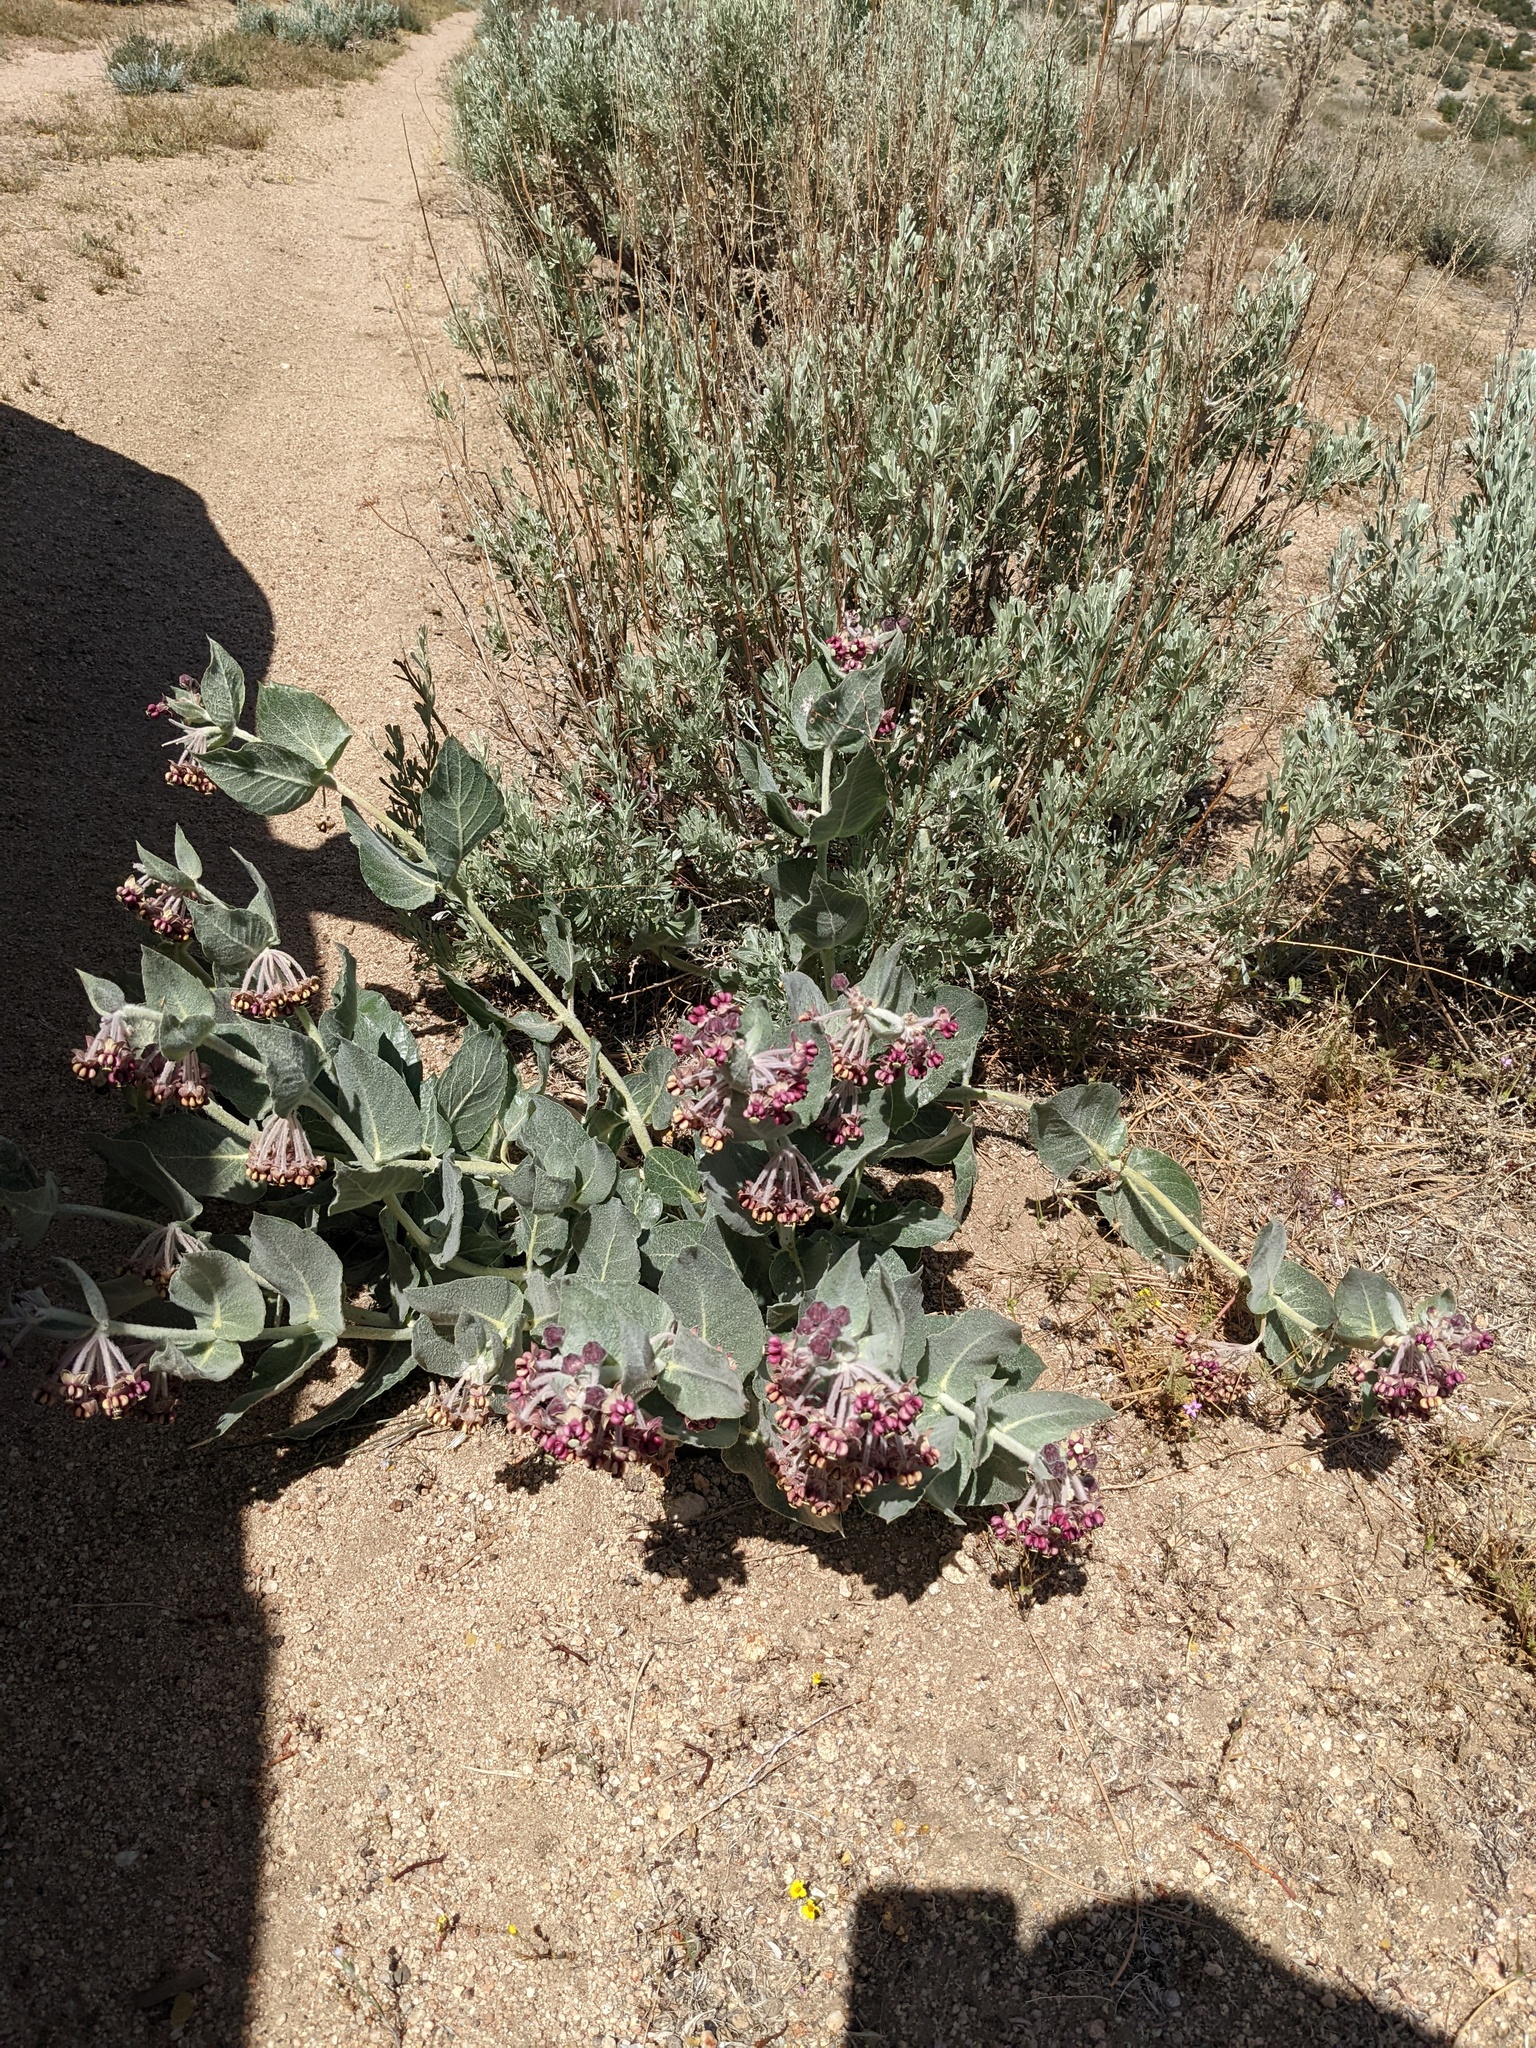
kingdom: Plantae
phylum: Tracheophyta
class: Magnoliopsida
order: Gentianales
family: Apocynaceae
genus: Asclepias
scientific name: Asclepias californica
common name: California milkweed
